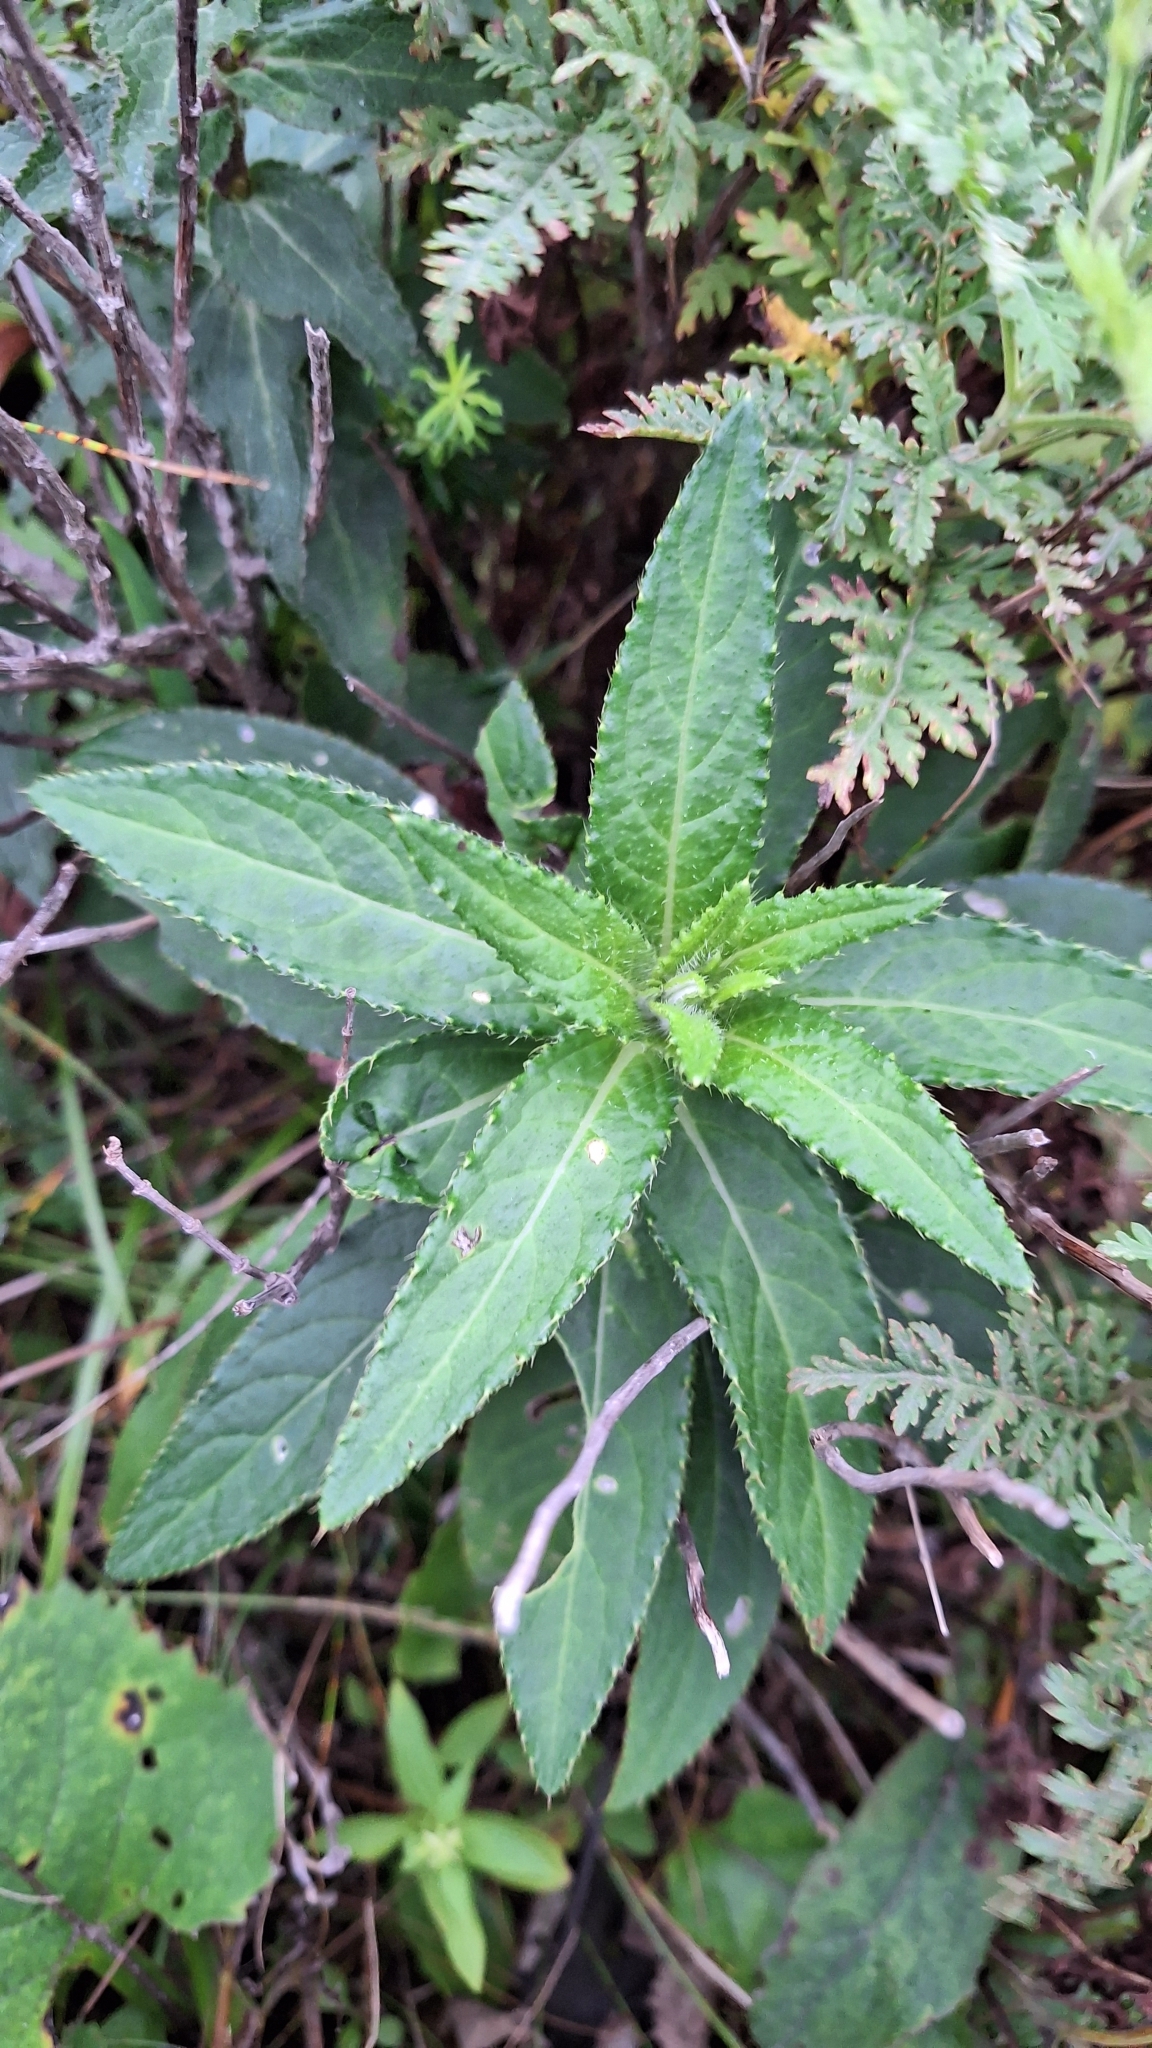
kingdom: Plantae
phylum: Tracheophyta
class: Magnoliopsida
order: Asterales
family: Asteraceae
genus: Cirsium
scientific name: Cirsium vlassovianum
